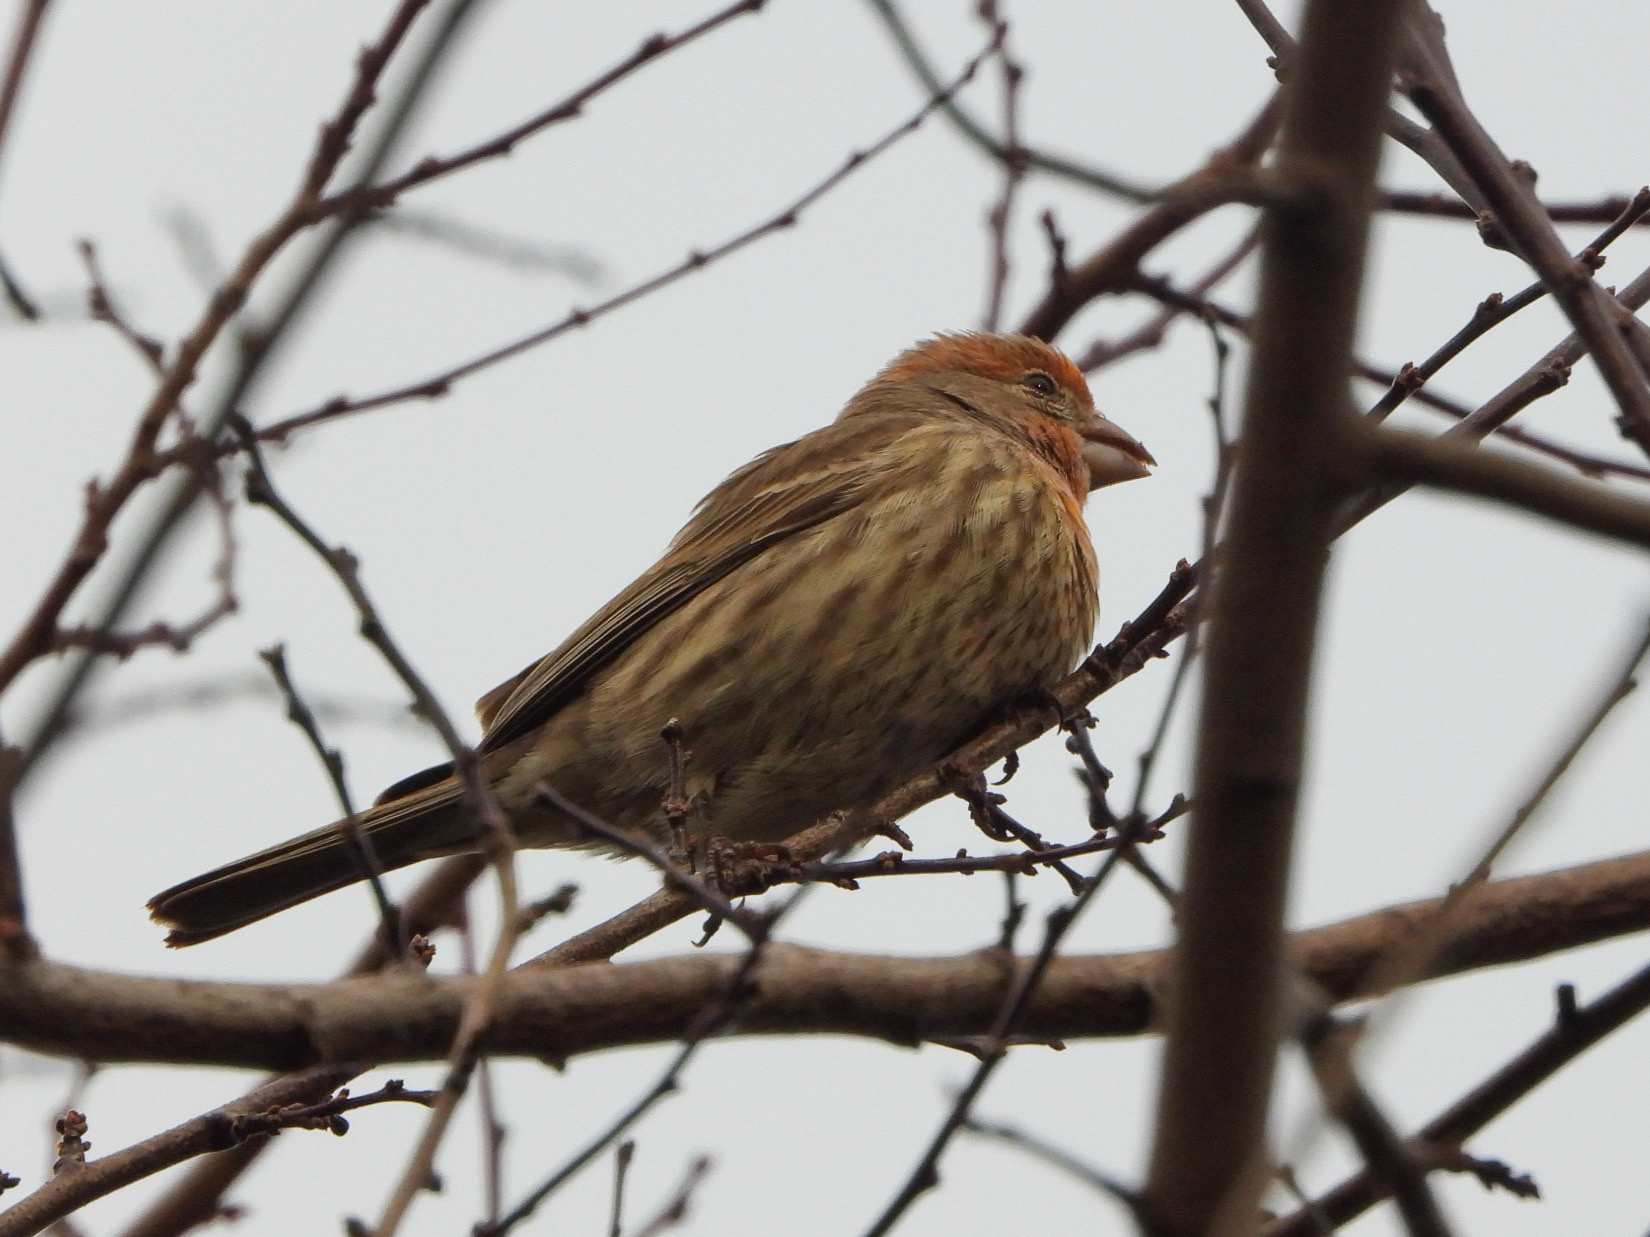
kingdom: Animalia
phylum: Chordata
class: Aves
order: Passeriformes
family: Fringillidae
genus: Haemorhous
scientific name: Haemorhous mexicanus
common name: House finch
